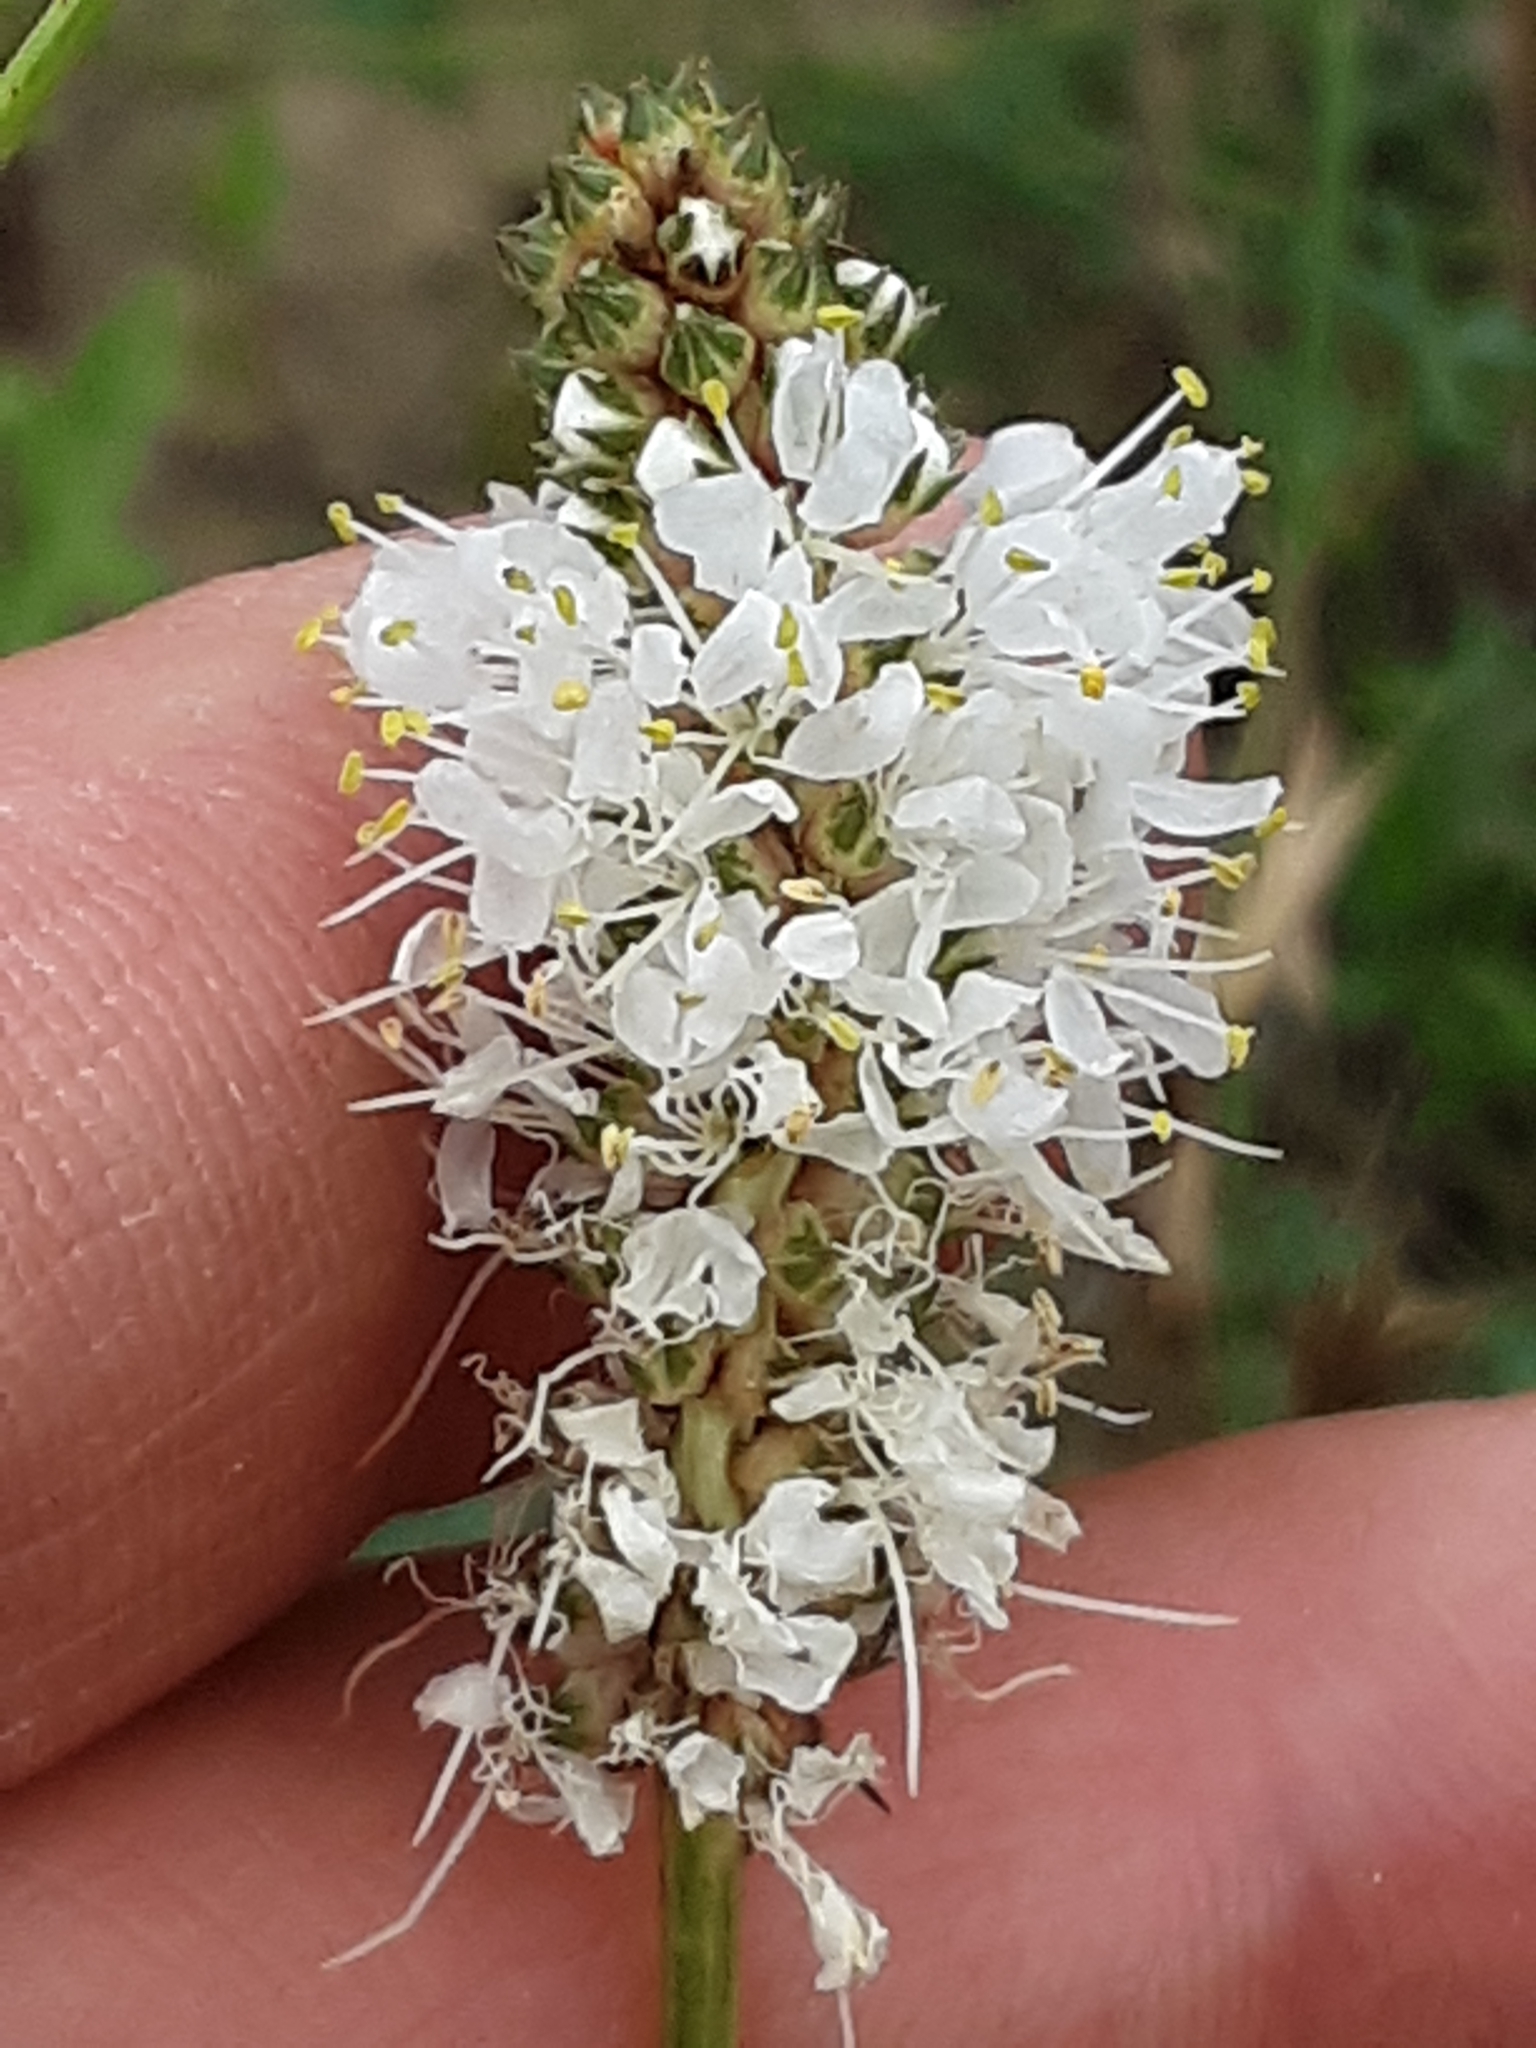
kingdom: Plantae
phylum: Tracheophyta
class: Magnoliopsida
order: Fabales
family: Fabaceae
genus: Dalea
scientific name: Dalea candida
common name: White prairie-clover
